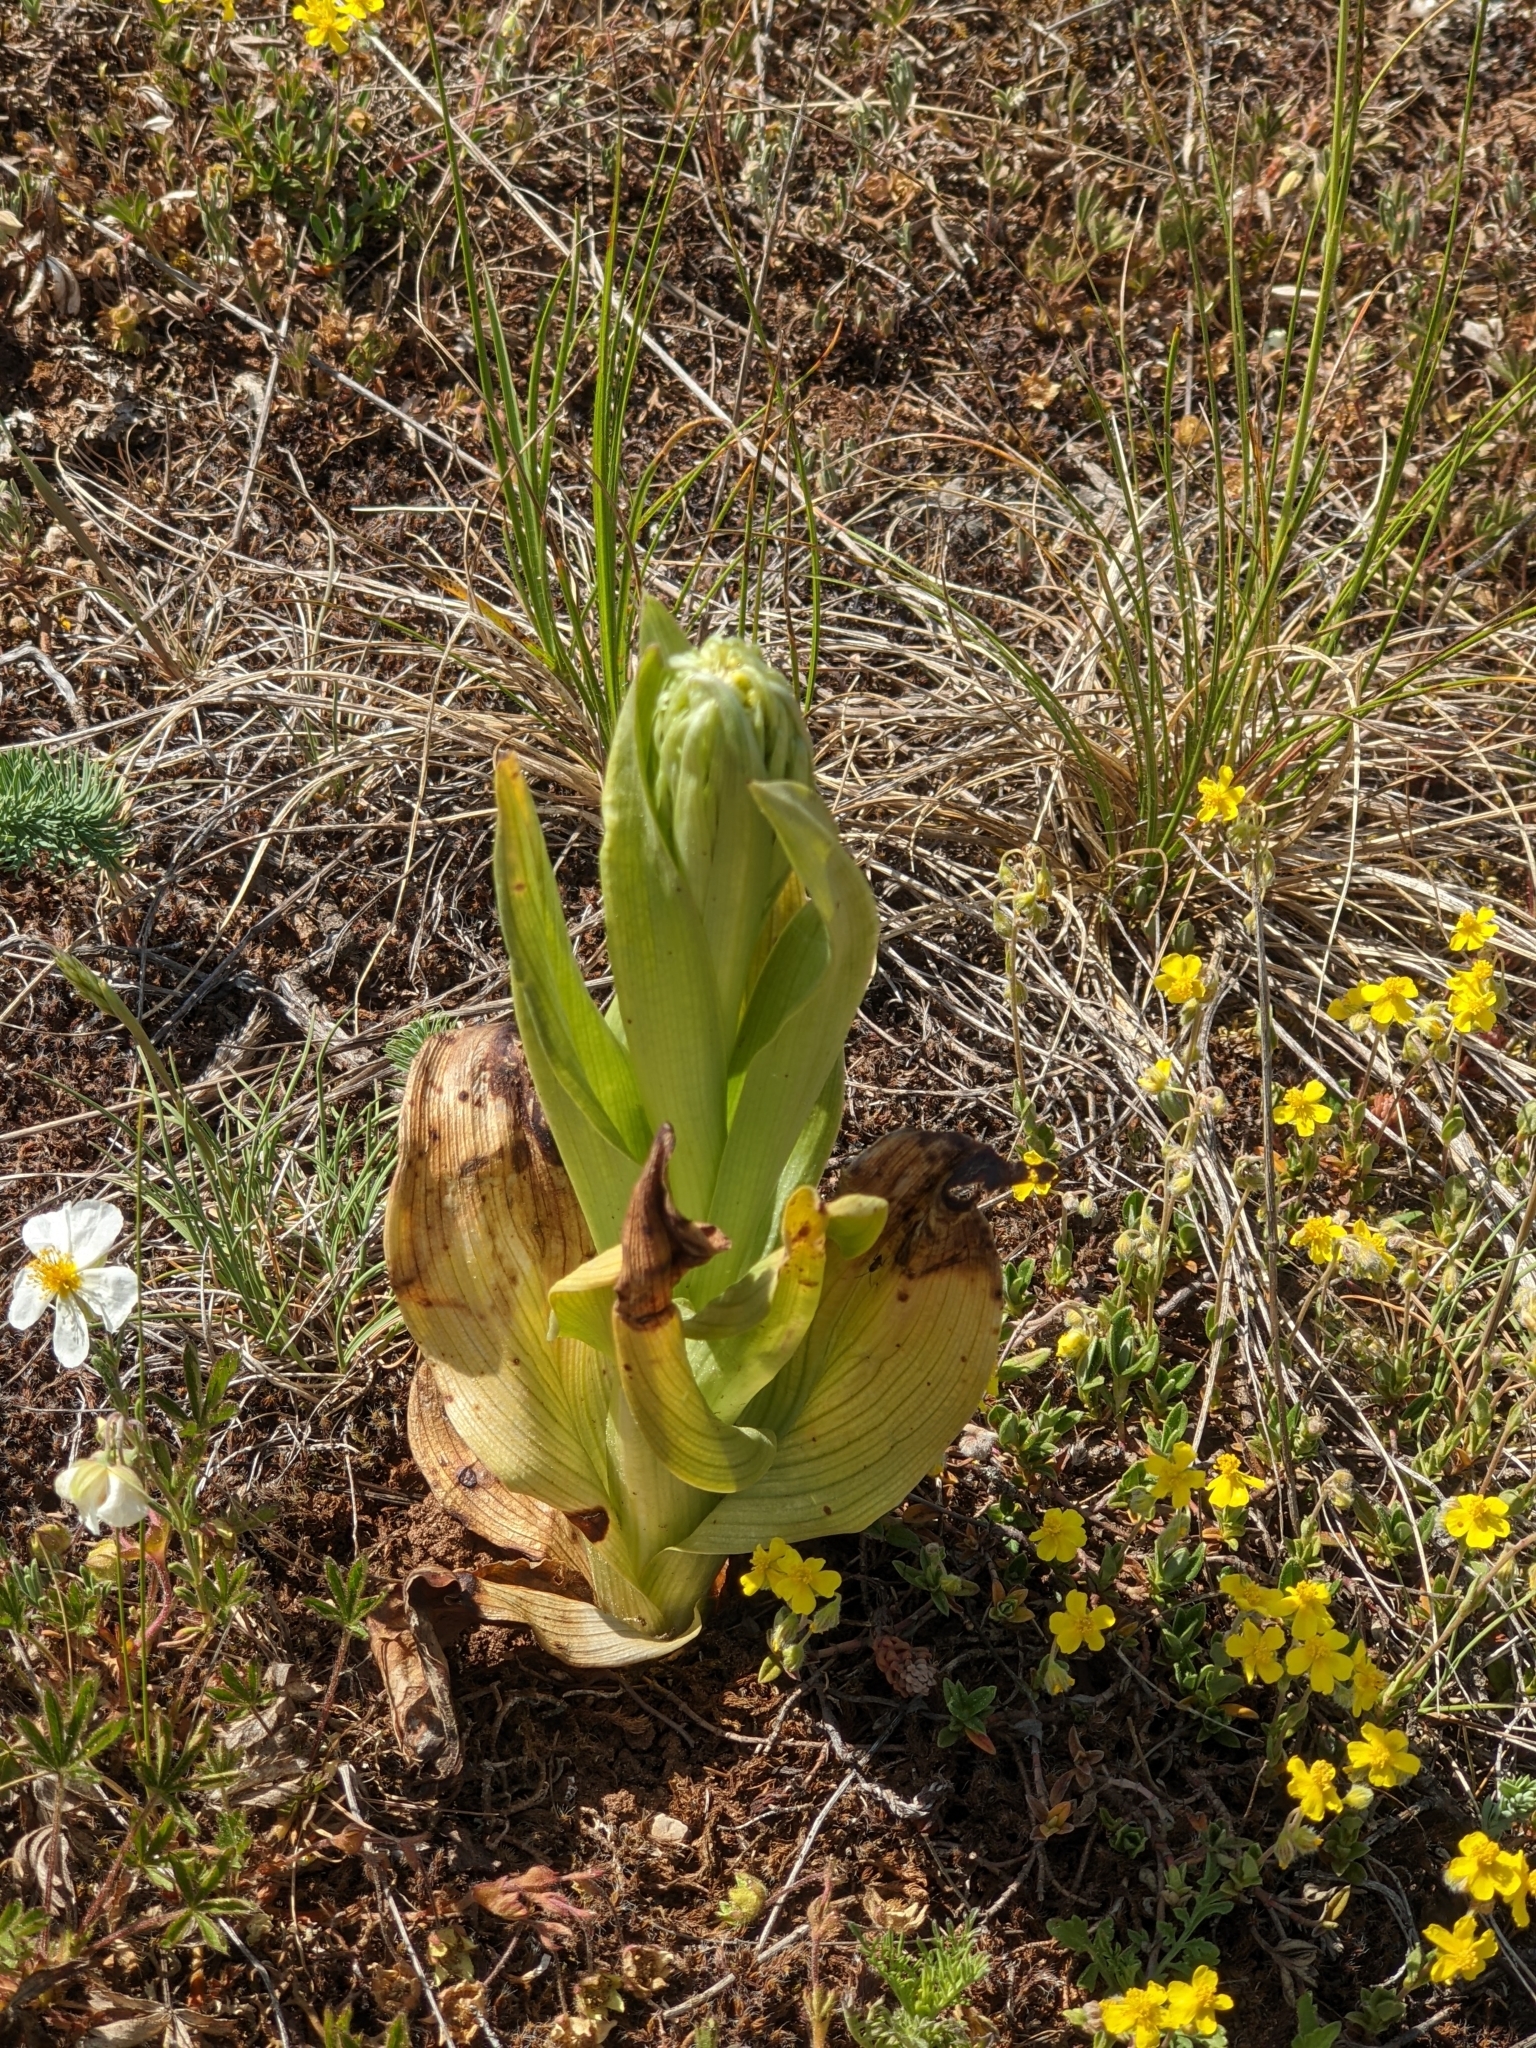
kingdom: Plantae
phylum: Tracheophyta
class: Liliopsida
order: Asparagales
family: Orchidaceae
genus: Himantoglossum
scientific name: Himantoglossum hircinum
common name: Lizard orchid
